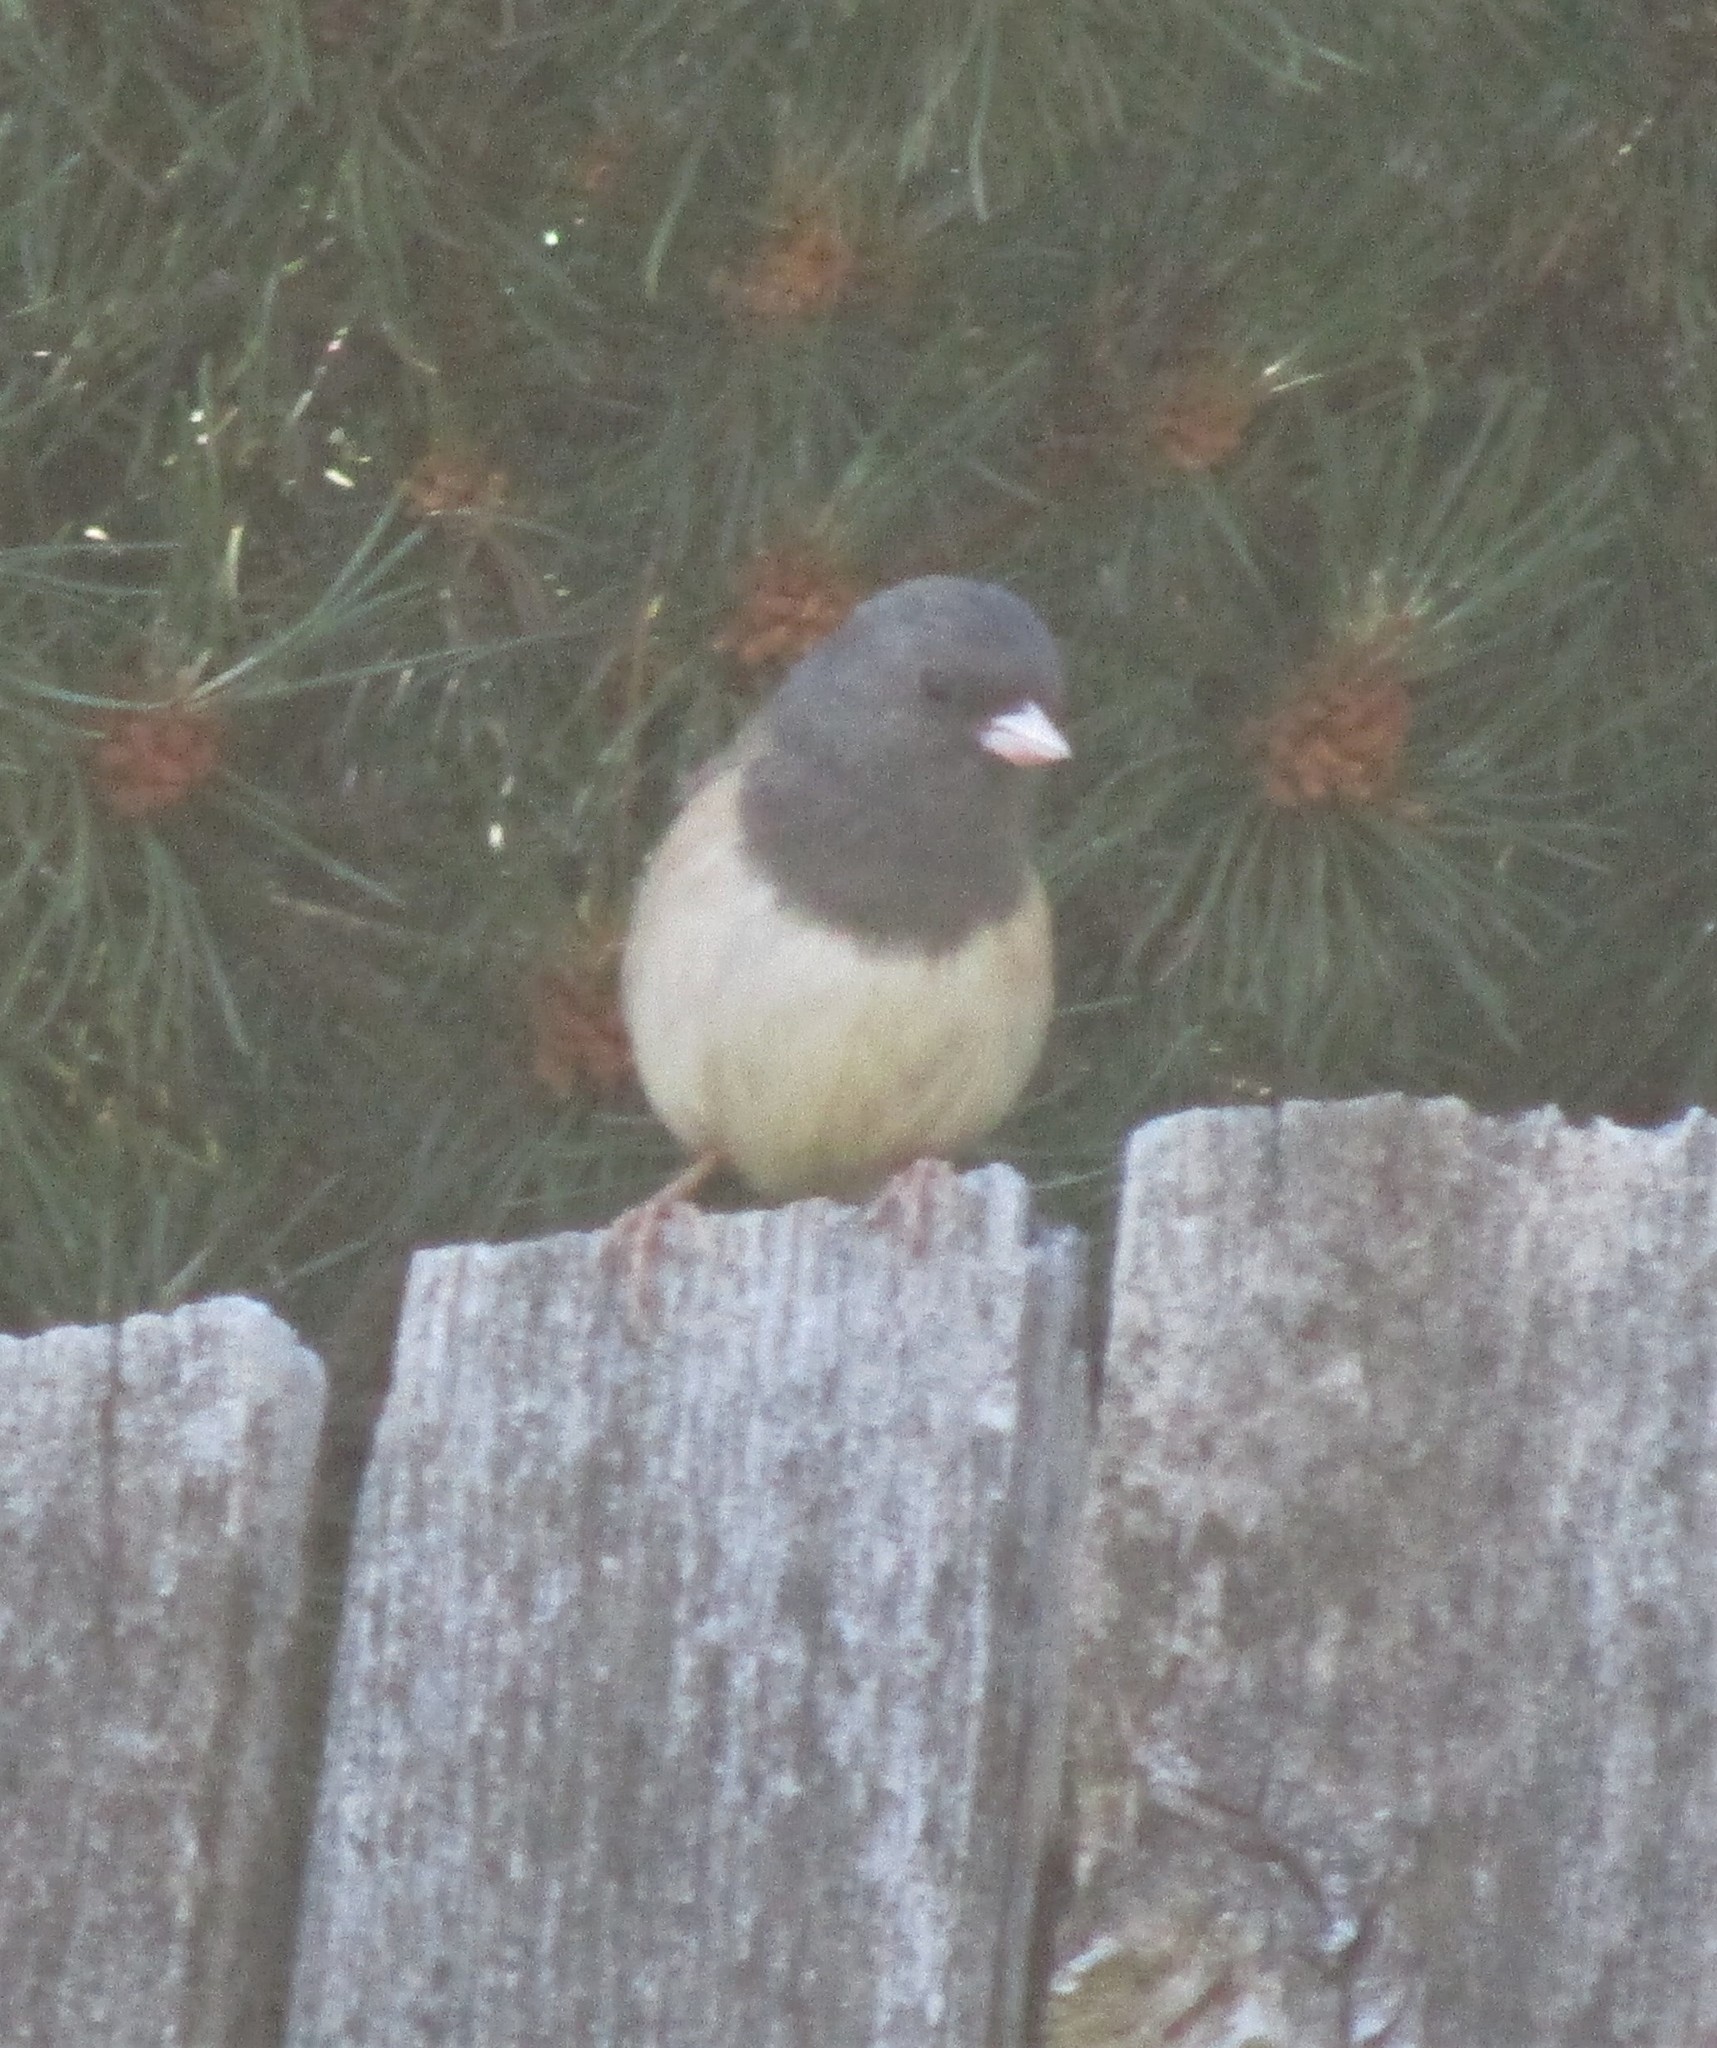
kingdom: Animalia
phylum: Chordata
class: Aves
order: Passeriformes
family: Passerellidae
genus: Junco
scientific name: Junco hyemalis
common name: Dark-eyed junco
